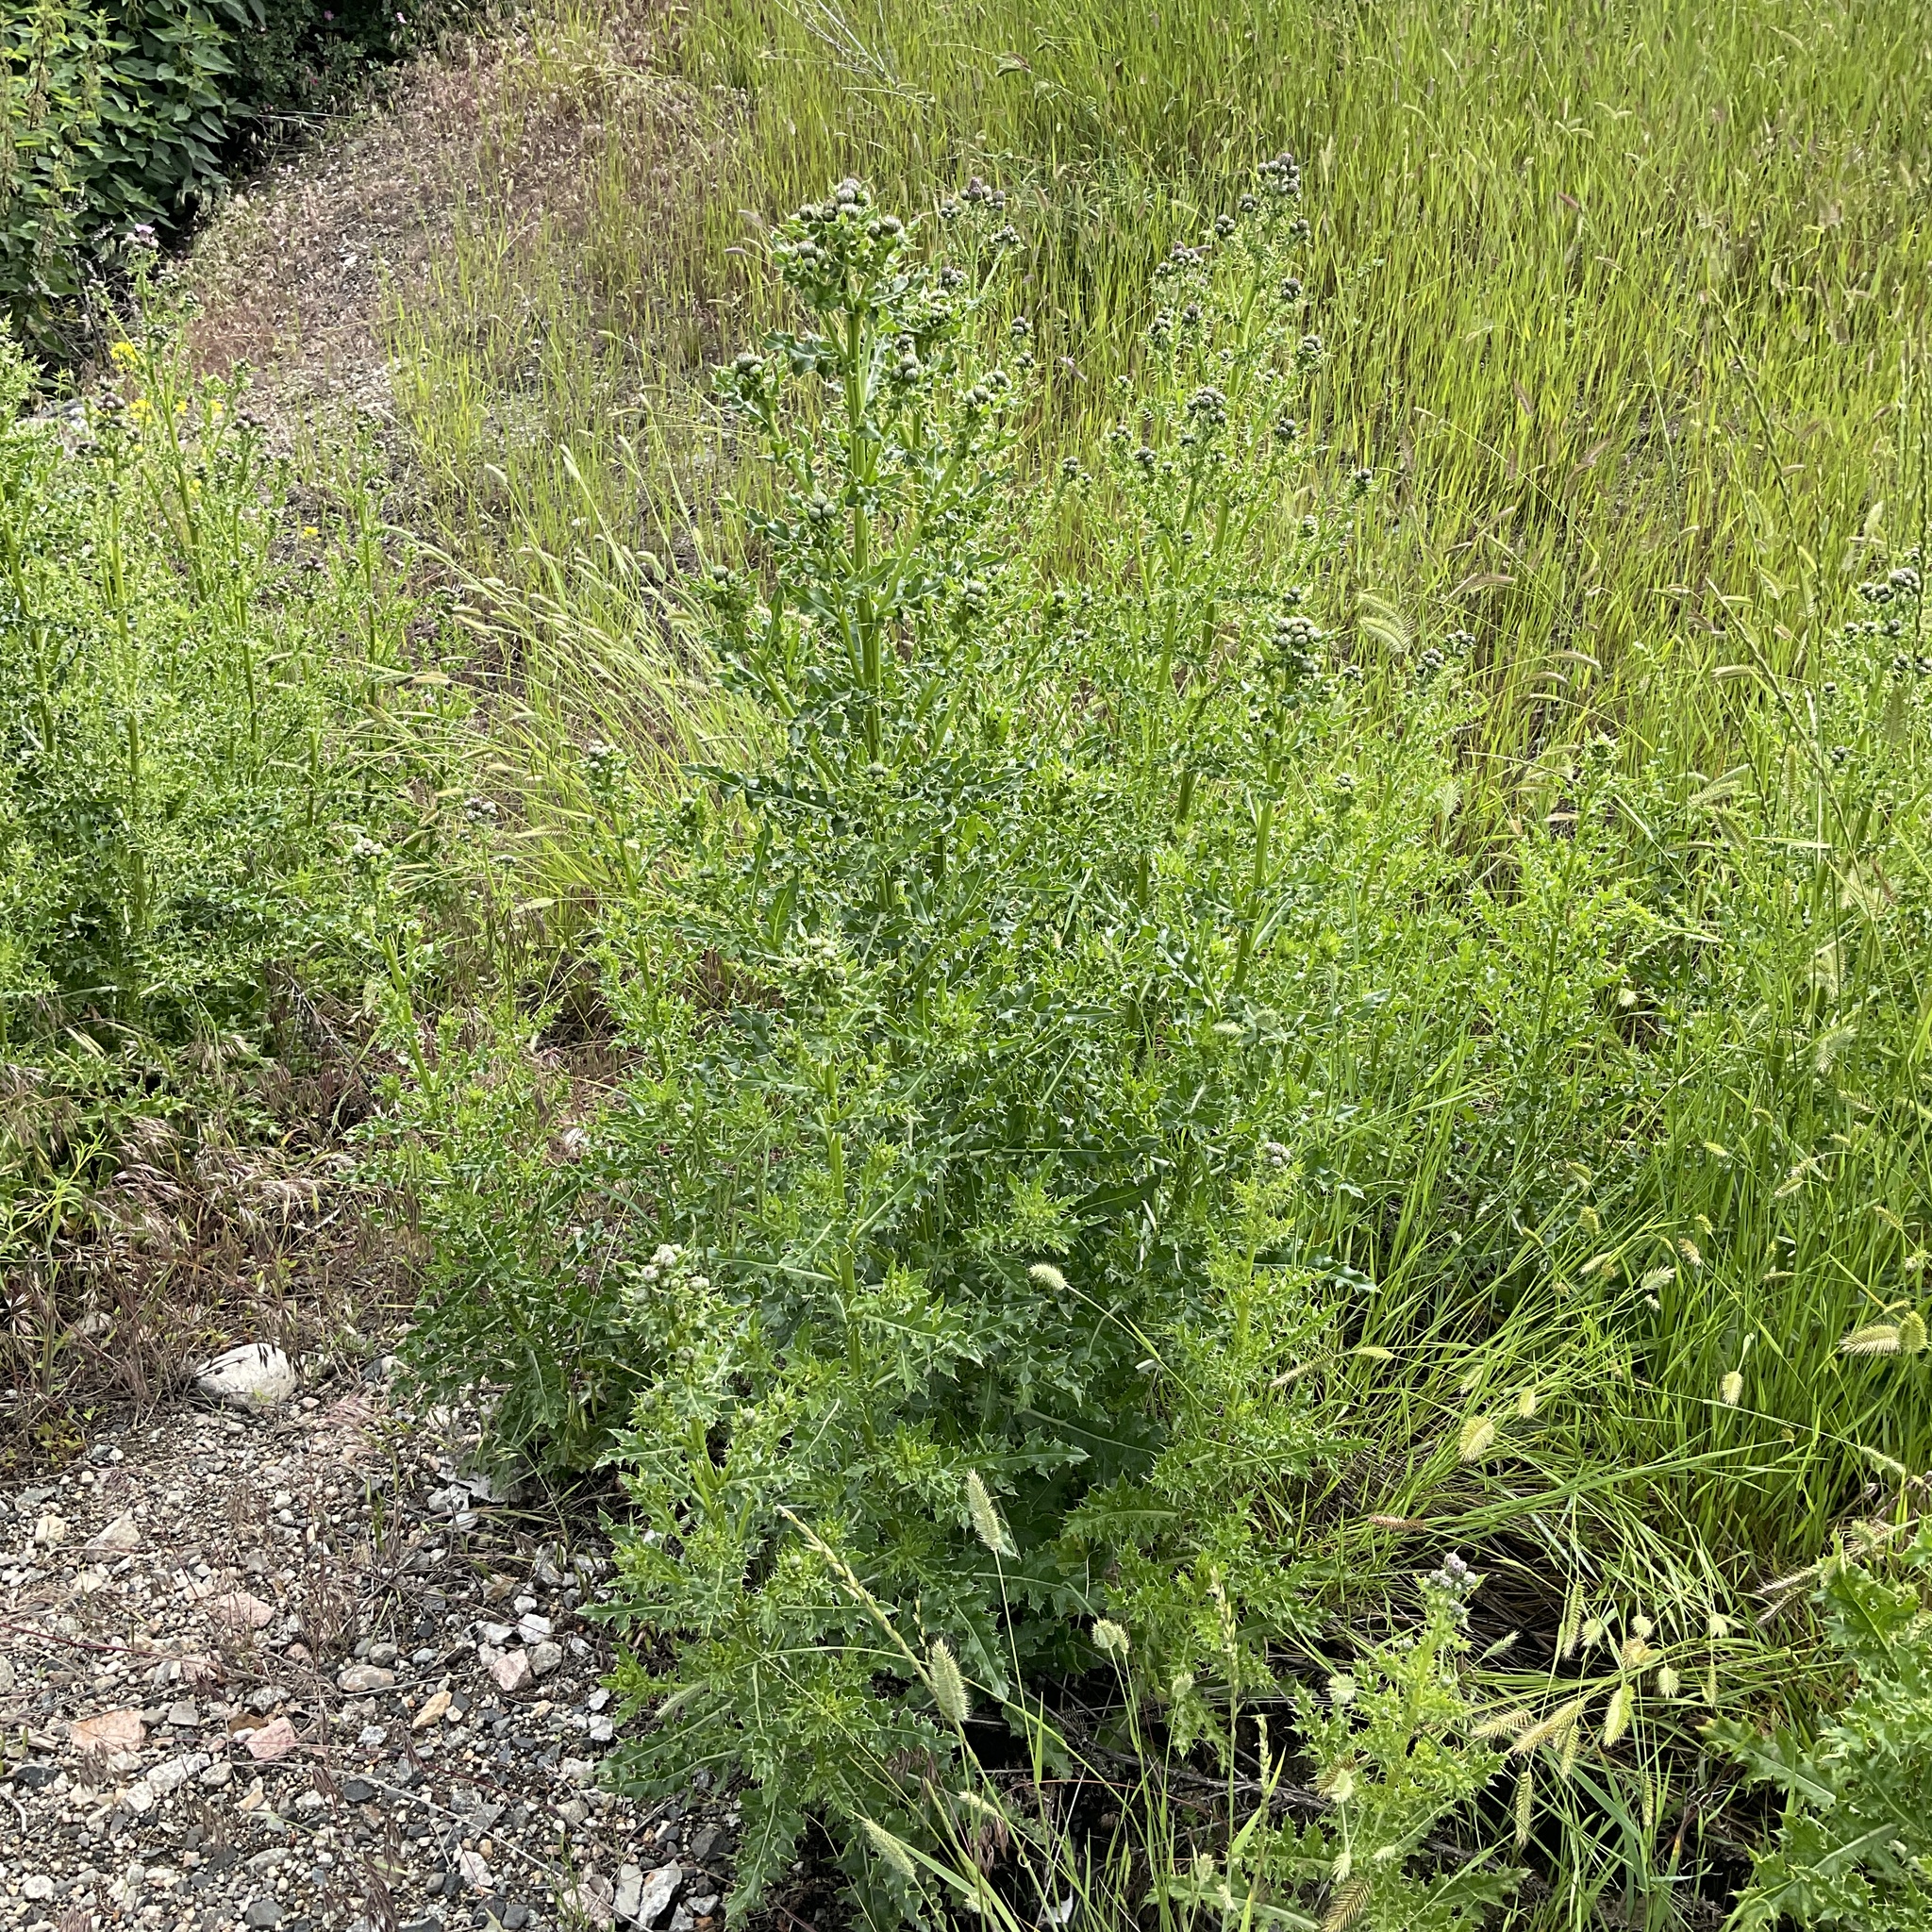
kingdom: Plantae
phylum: Tracheophyta
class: Magnoliopsida
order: Asterales
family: Asteraceae
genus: Cirsium
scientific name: Cirsium arvense
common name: Creeping thistle
